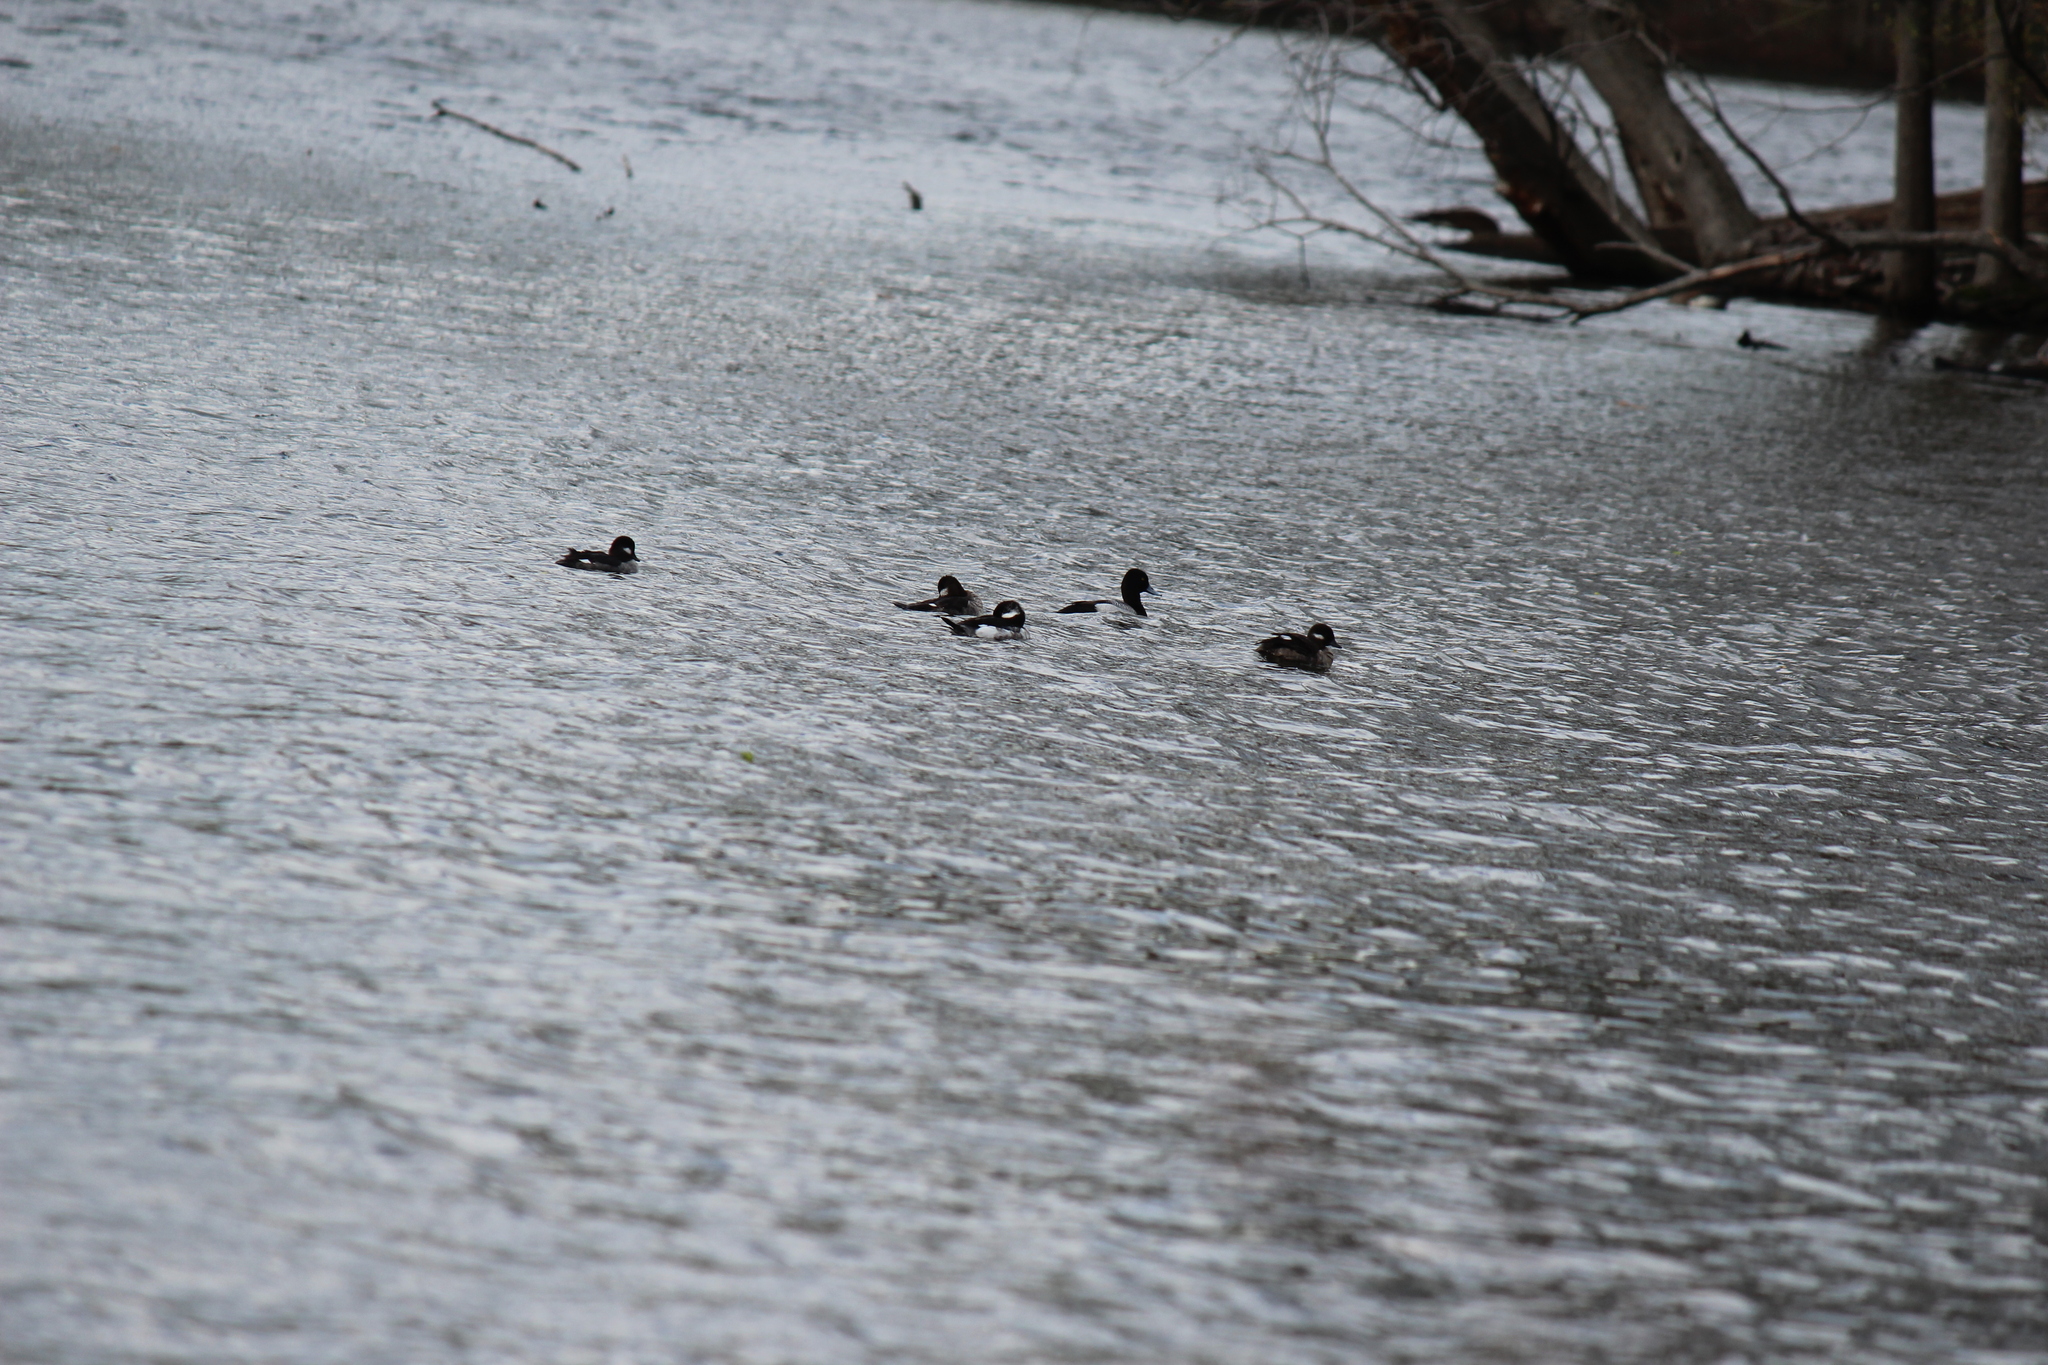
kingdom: Animalia
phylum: Chordata
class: Aves
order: Anseriformes
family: Anatidae
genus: Bucephala
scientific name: Bucephala albeola
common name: Bufflehead
